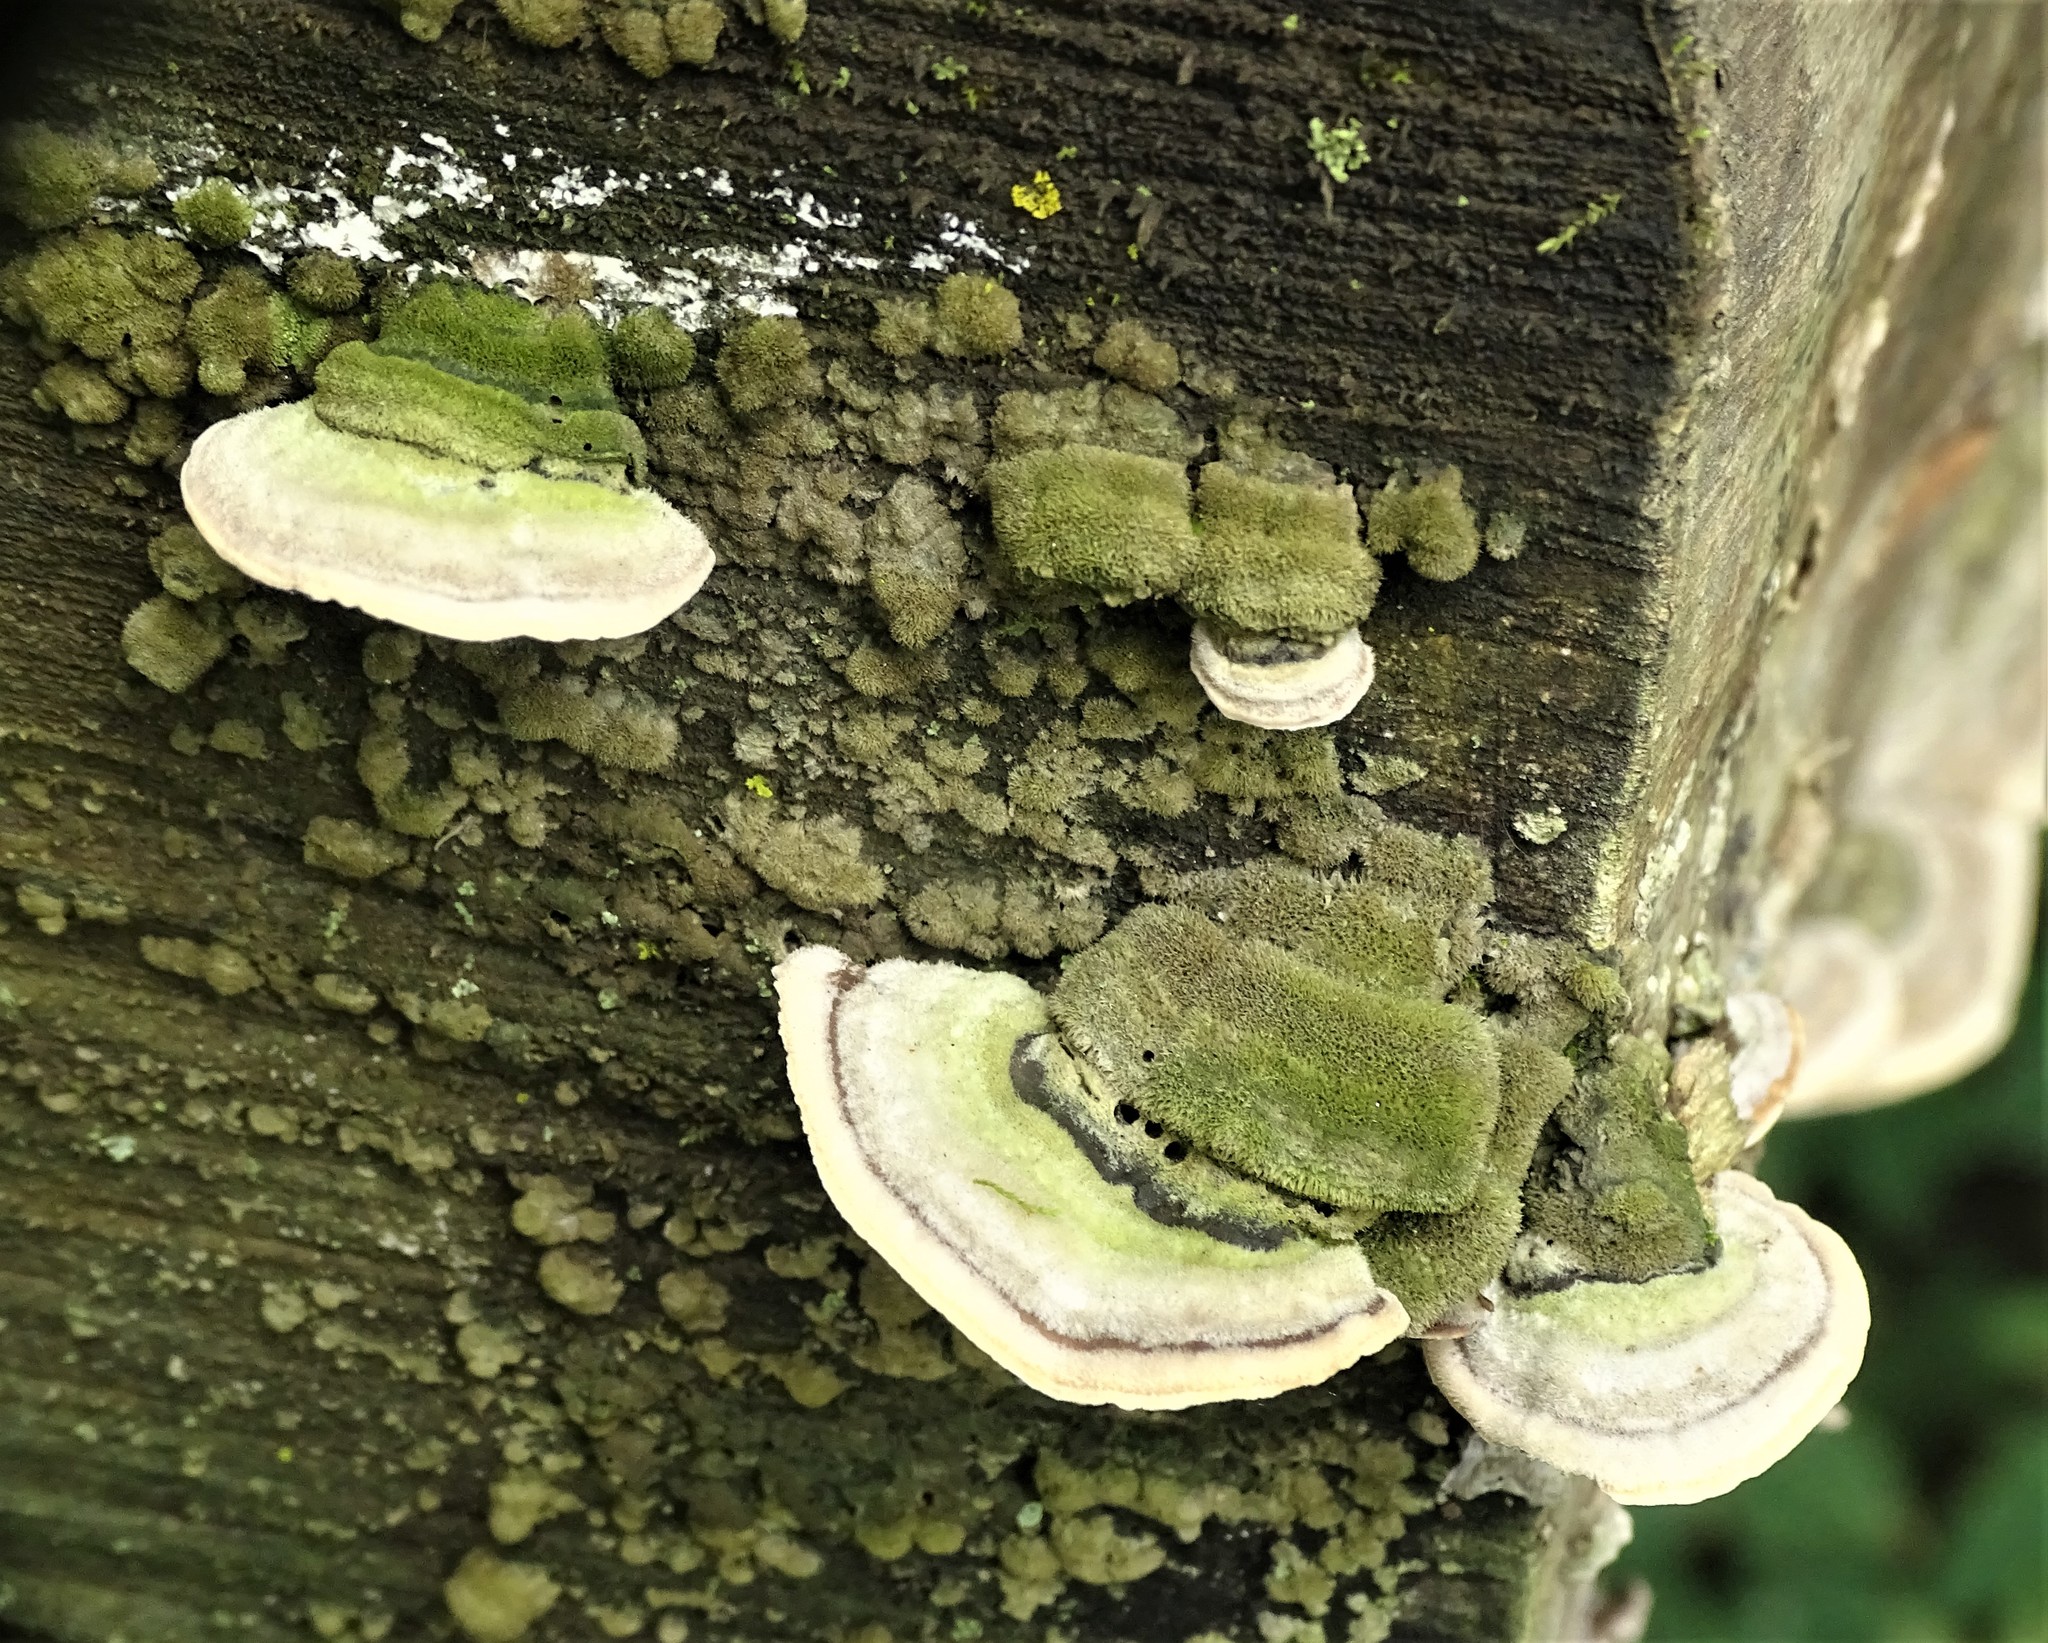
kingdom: Fungi
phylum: Basidiomycota
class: Agaricomycetes
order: Polyporales
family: Cerrenaceae
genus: Cerrena
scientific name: Cerrena unicolor
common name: Mossy maze polypore
